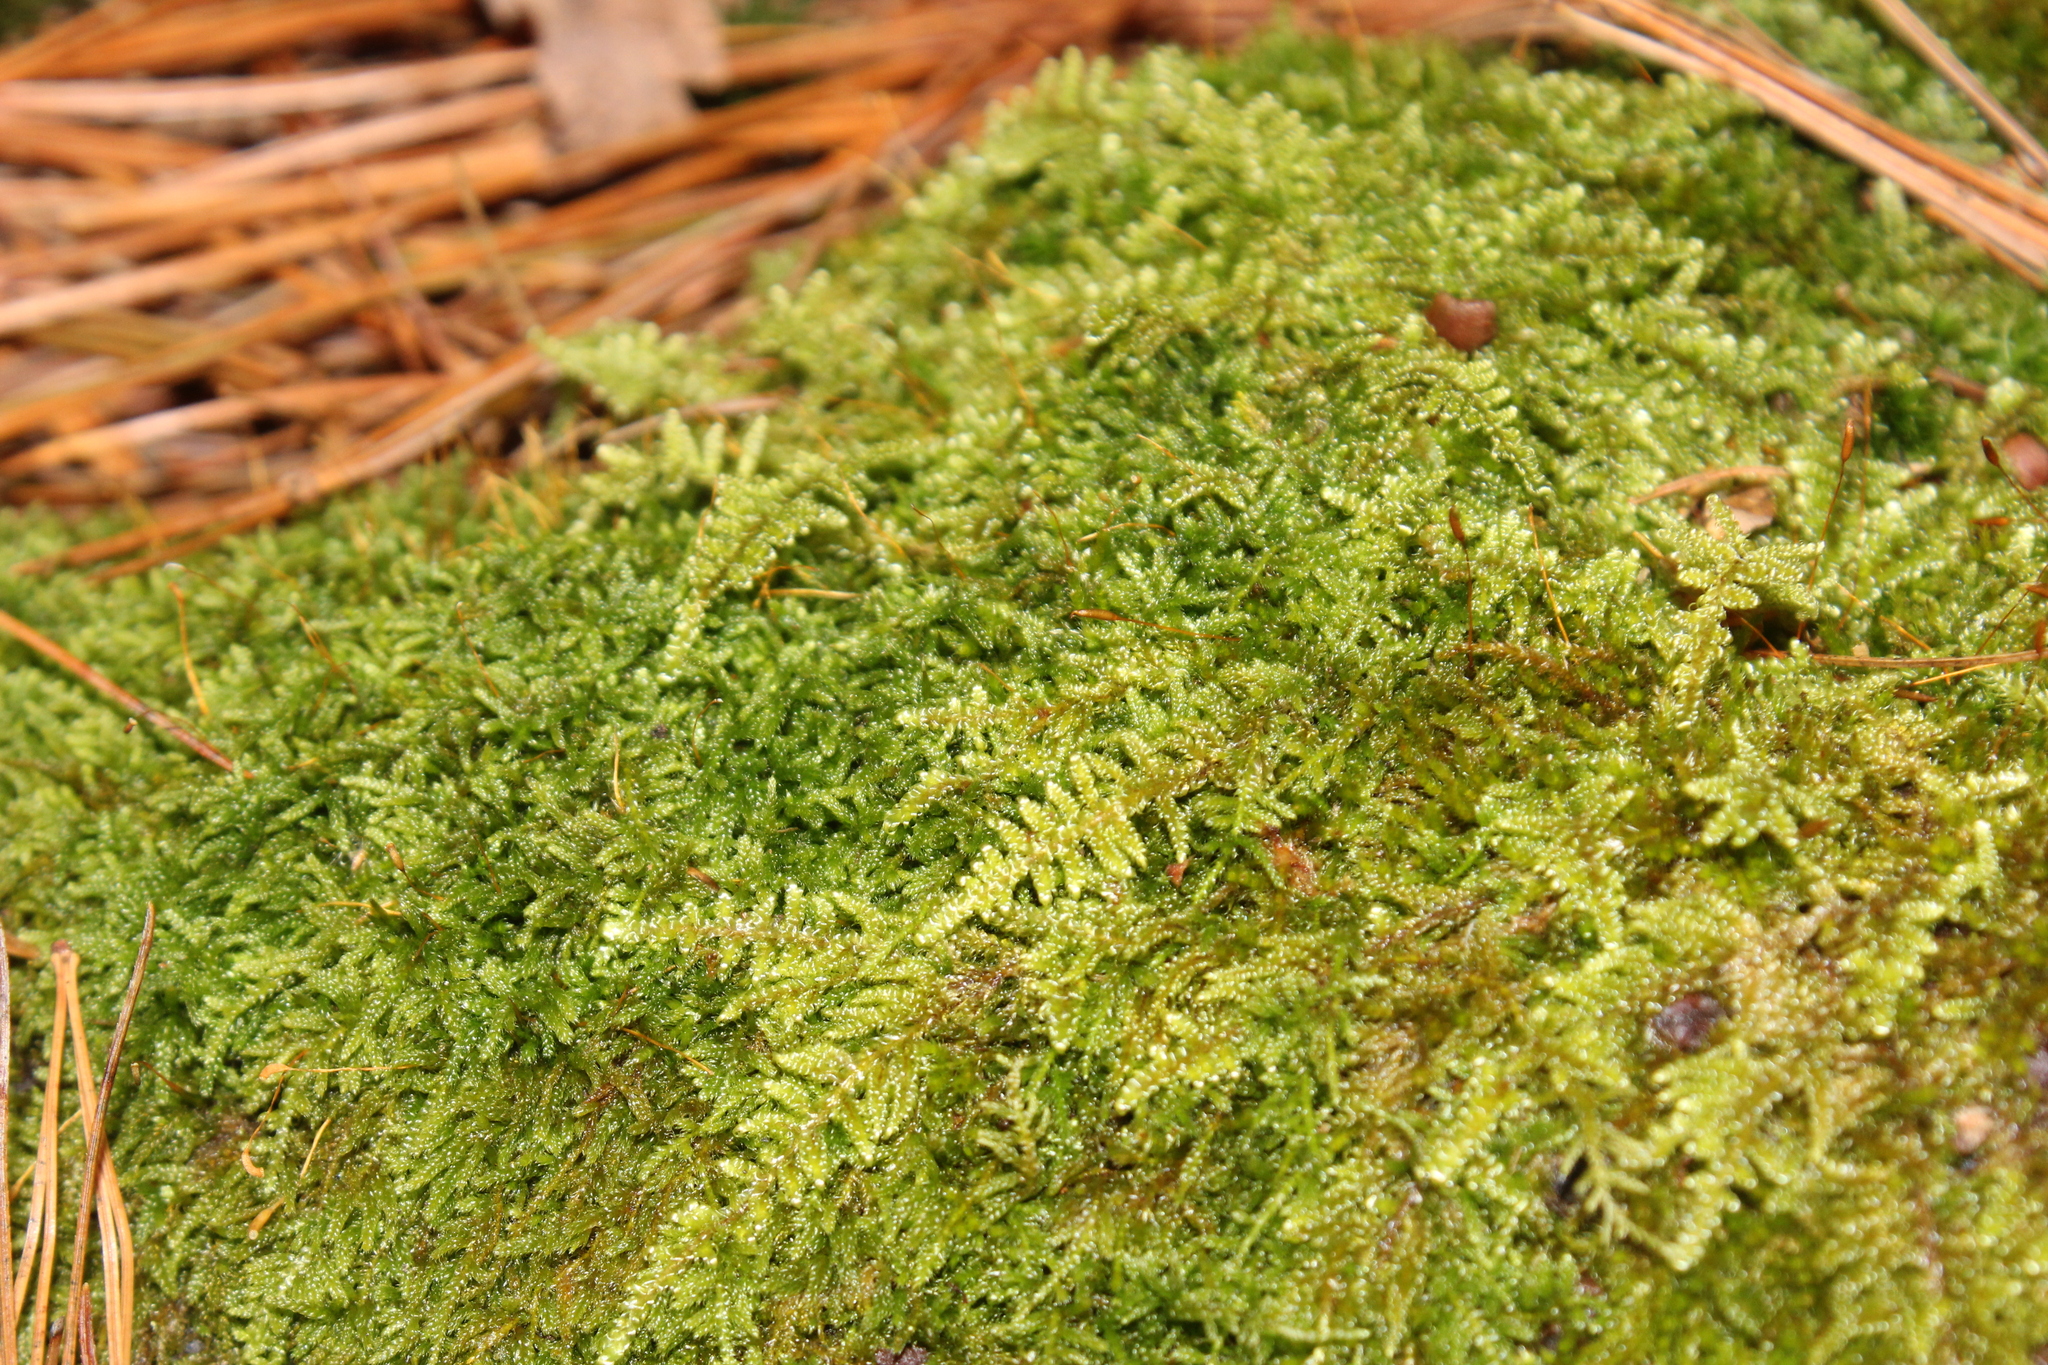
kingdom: Plantae
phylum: Bryophyta
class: Bryopsida
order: Hypnales
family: Callicladiaceae
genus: Callicladium
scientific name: Callicladium imponens
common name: Brocade moss
